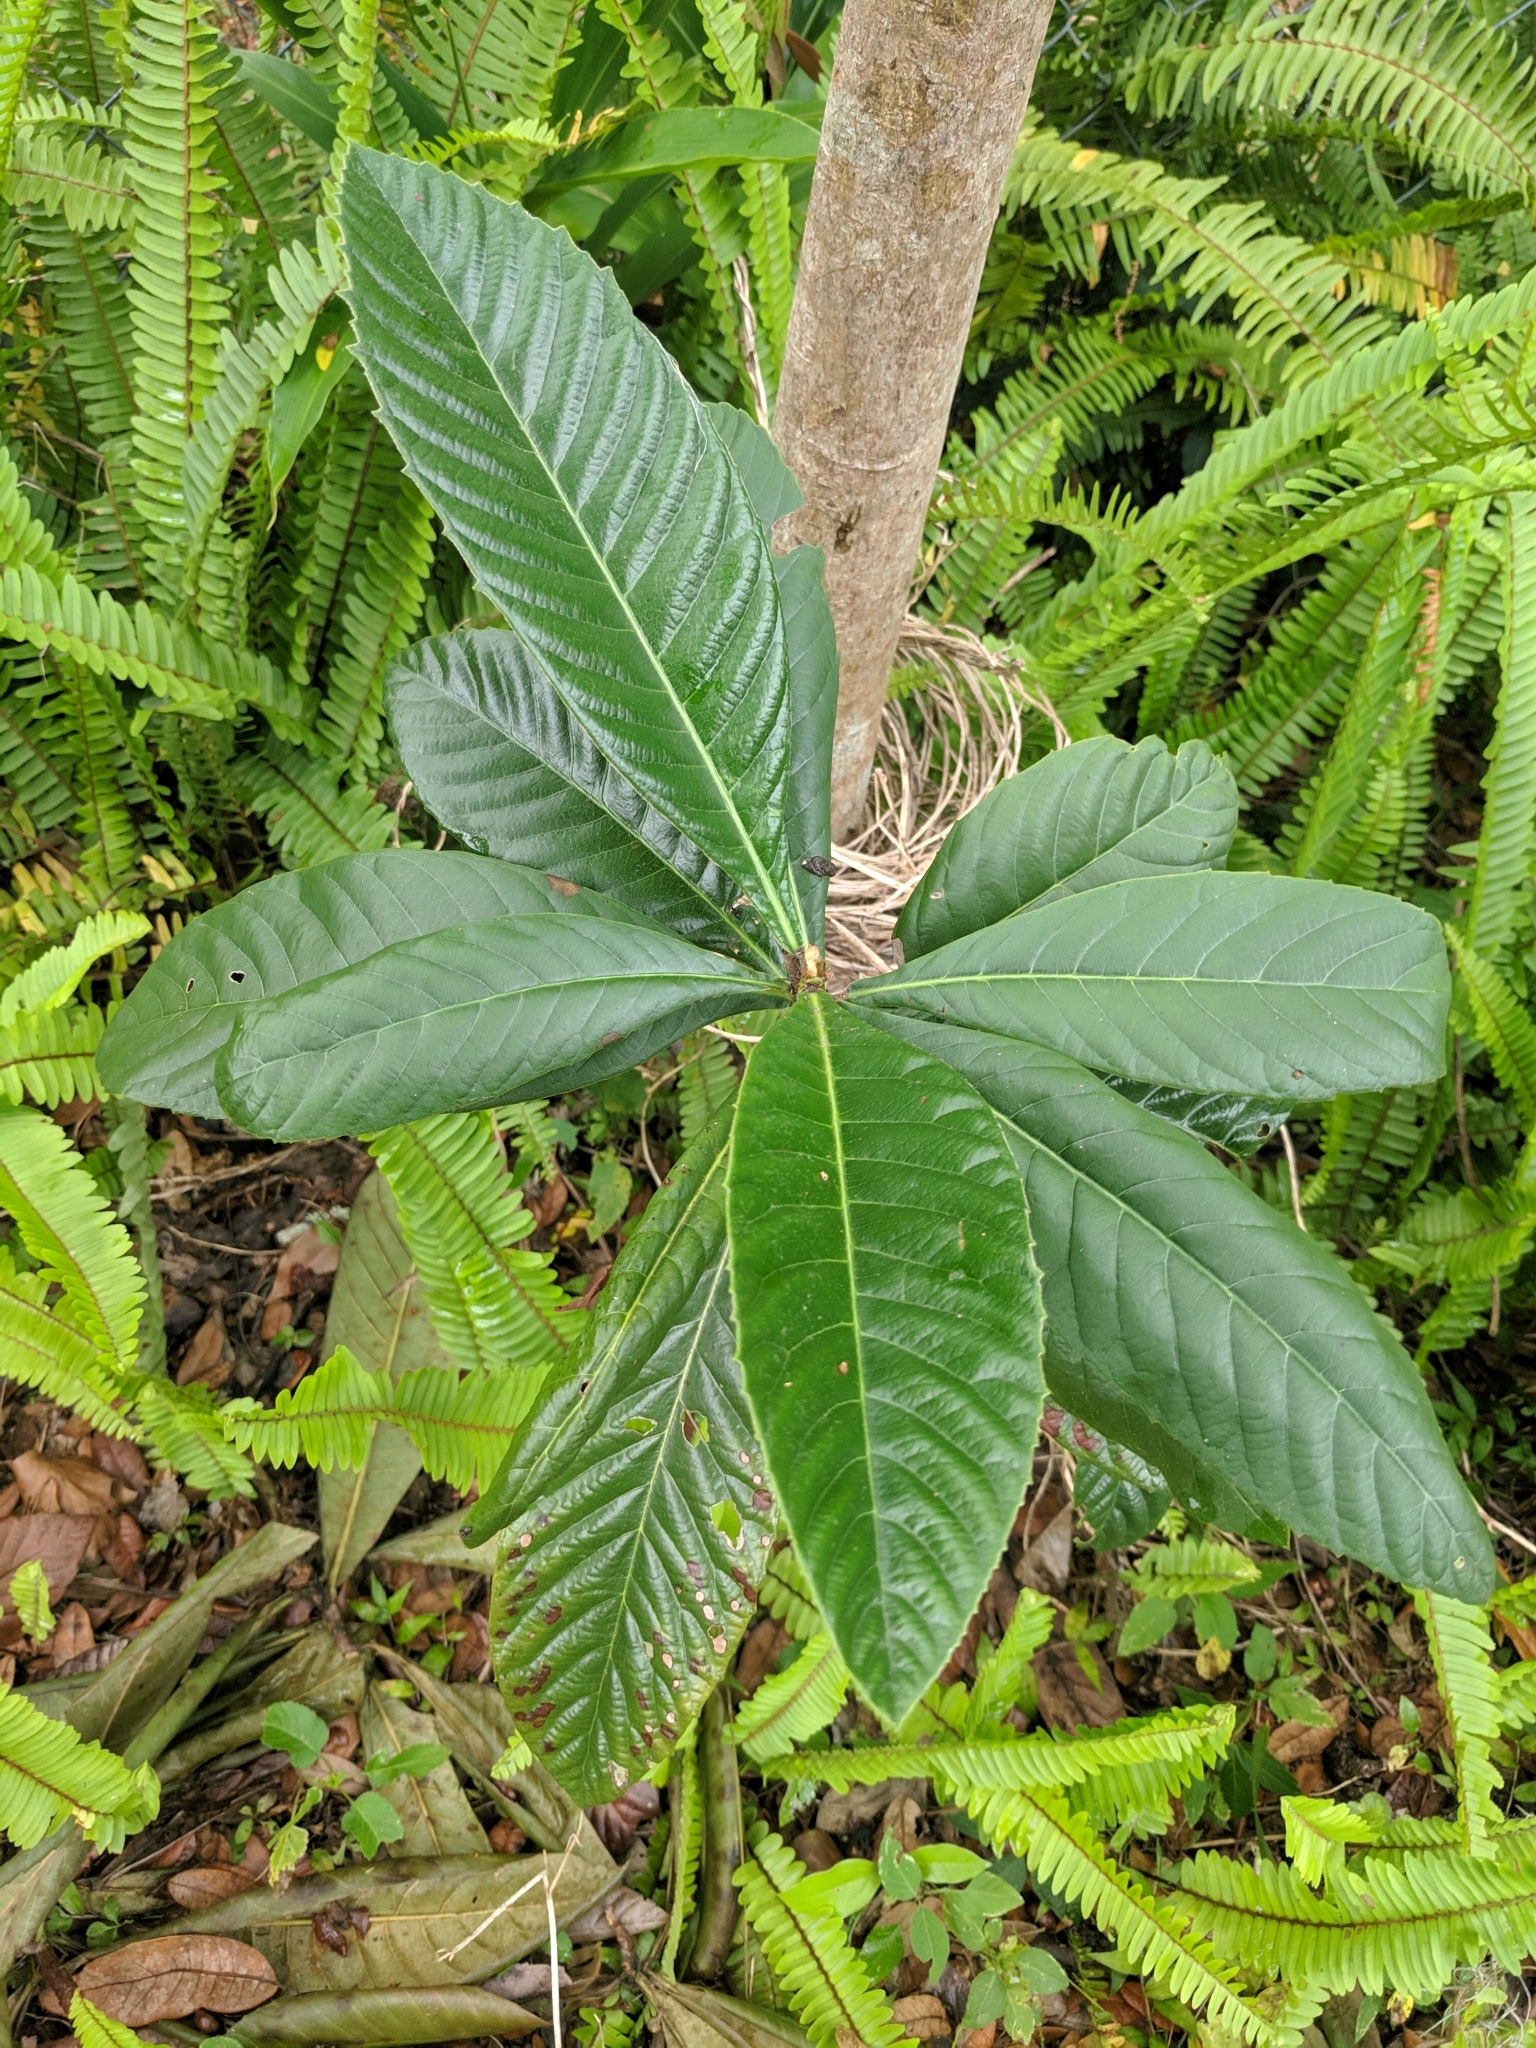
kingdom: Plantae
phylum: Tracheophyta
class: Magnoliopsida
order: Rosales
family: Rosaceae
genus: Rhaphiolepis
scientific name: Rhaphiolepis bibas
